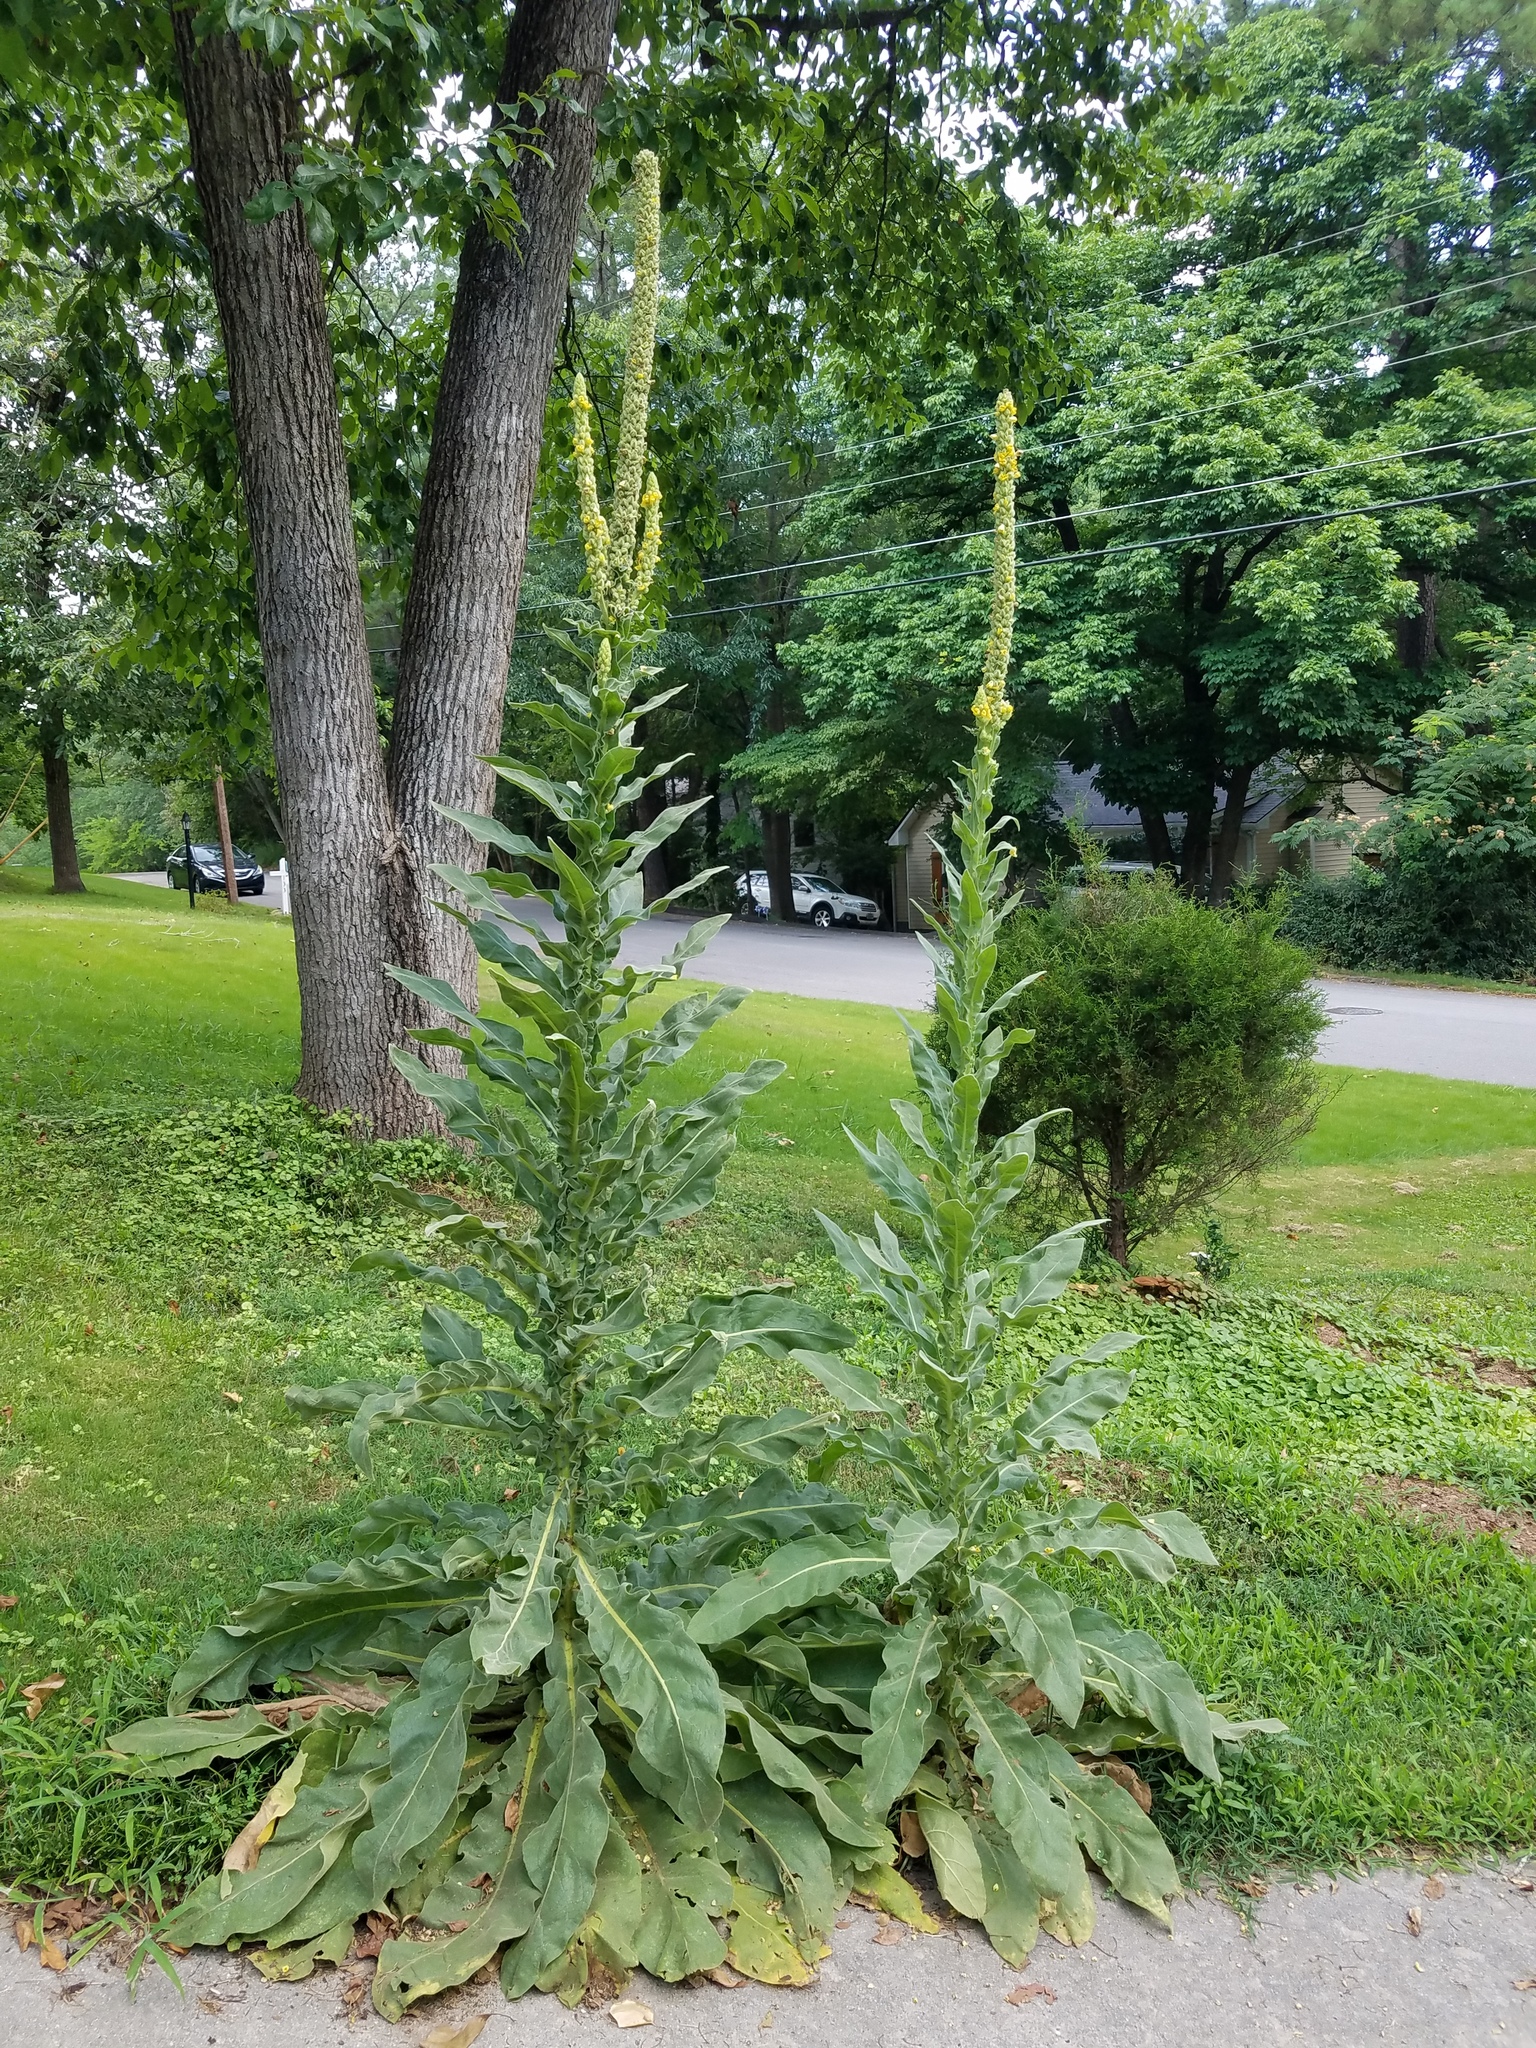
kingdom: Plantae
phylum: Tracheophyta
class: Magnoliopsida
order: Lamiales
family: Scrophulariaceae
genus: Verbascum
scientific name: Verbascum thapsus
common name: Common mullein
